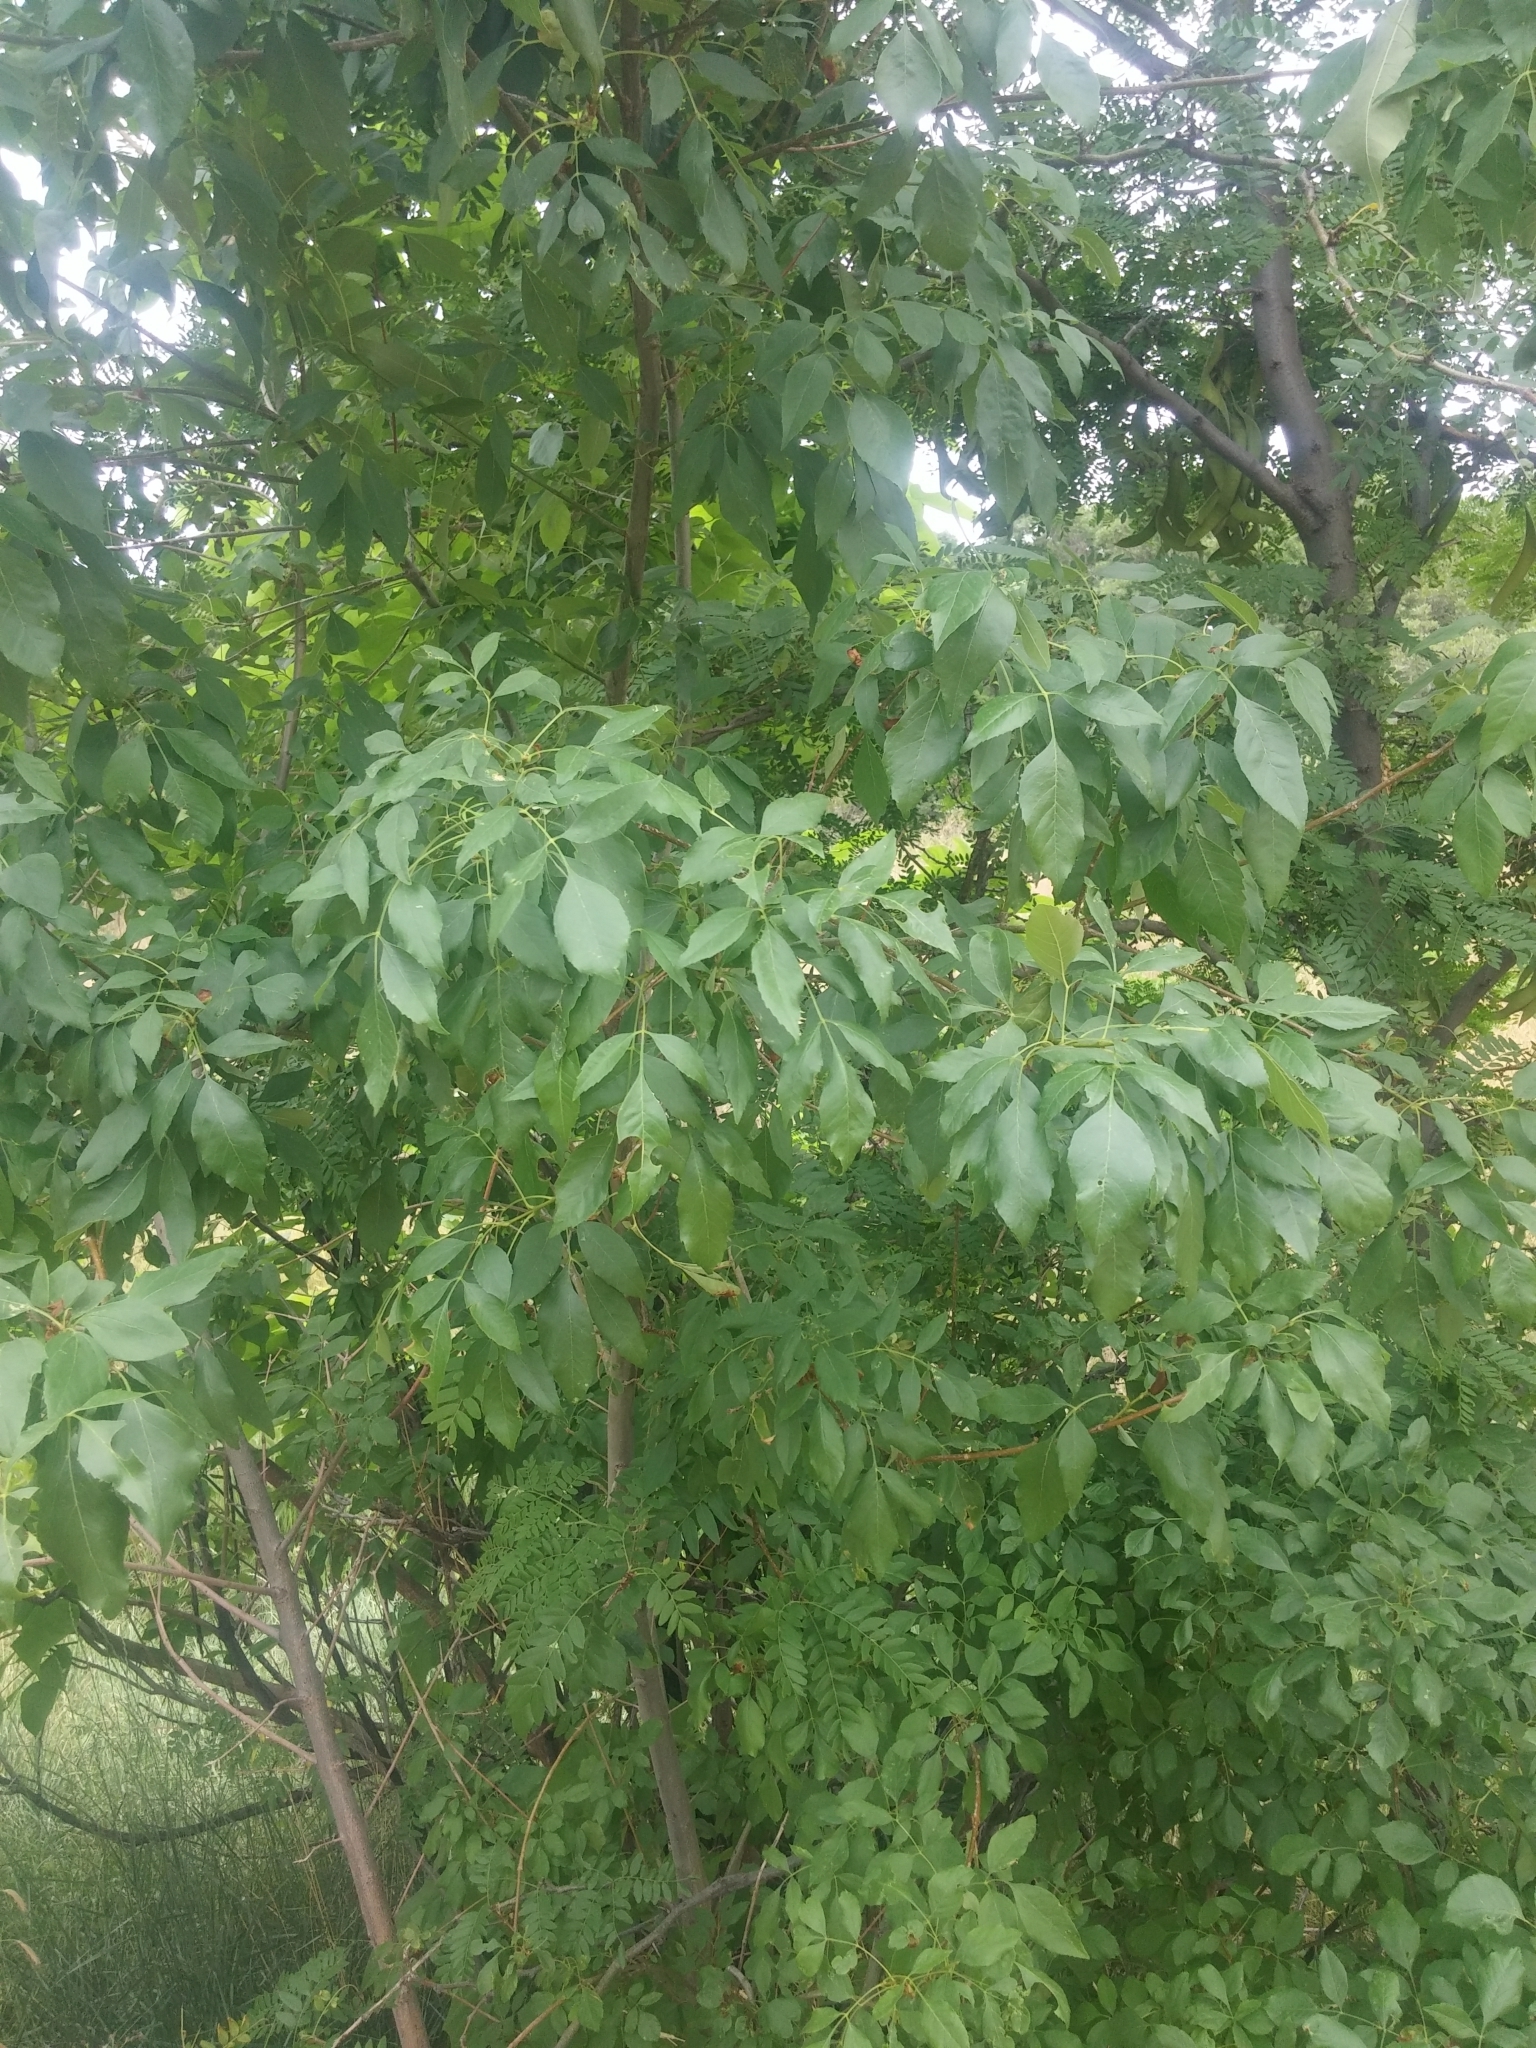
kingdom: Plantae
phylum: Tracheophyta
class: Magnoliopsida
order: Lamiales
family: Oleaceae
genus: Fraxinus
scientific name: Fraxinus pennsylvanica
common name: Green ash
